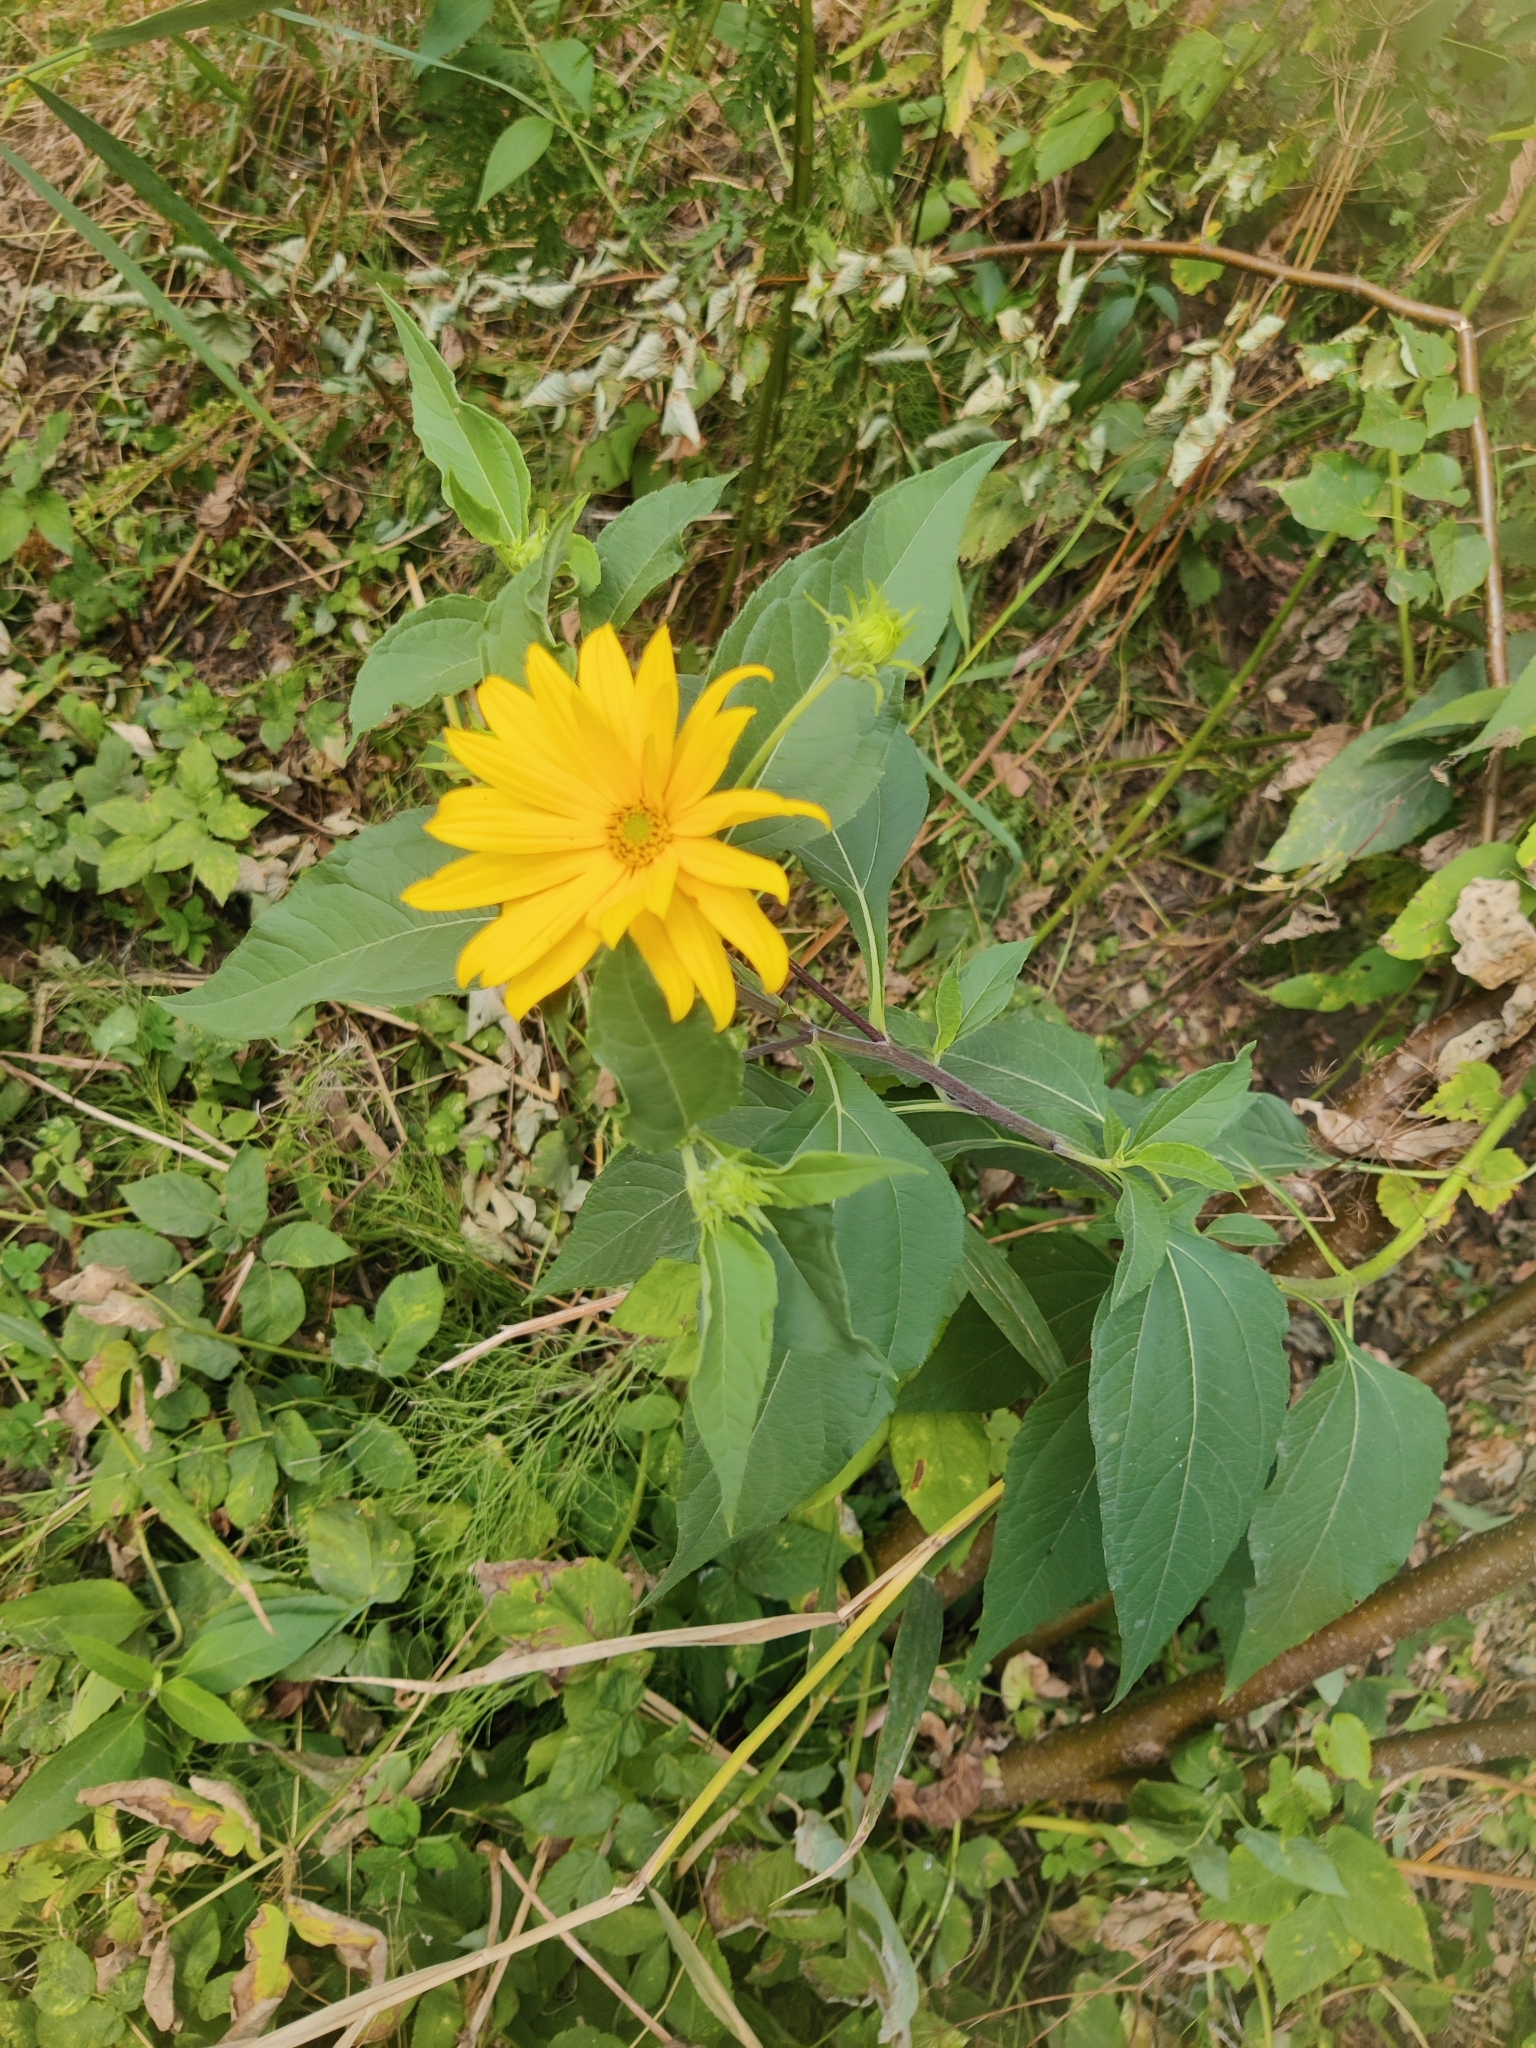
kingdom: Plantae
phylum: Tracheophyta
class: Magnoliopsida
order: Asterales
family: Asteraceae
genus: Helianthus
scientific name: Helianthus tuberosus
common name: Jerusalem artichoke
